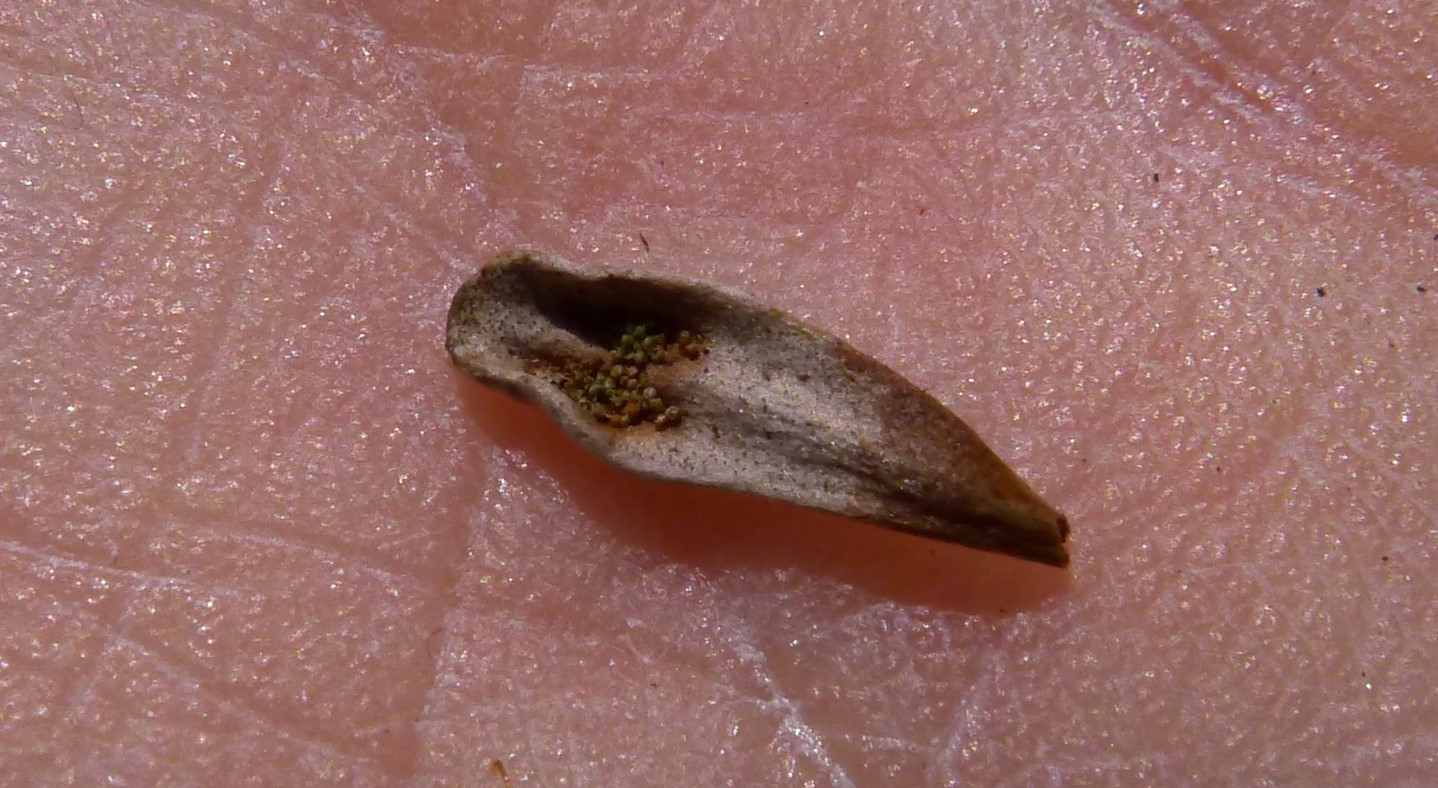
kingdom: Plantae
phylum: Tracheophyta
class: Polypodiopsida
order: Polypodiales
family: Polypodiaceae
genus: Notogrammitis
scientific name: Notogrammitis crassior
